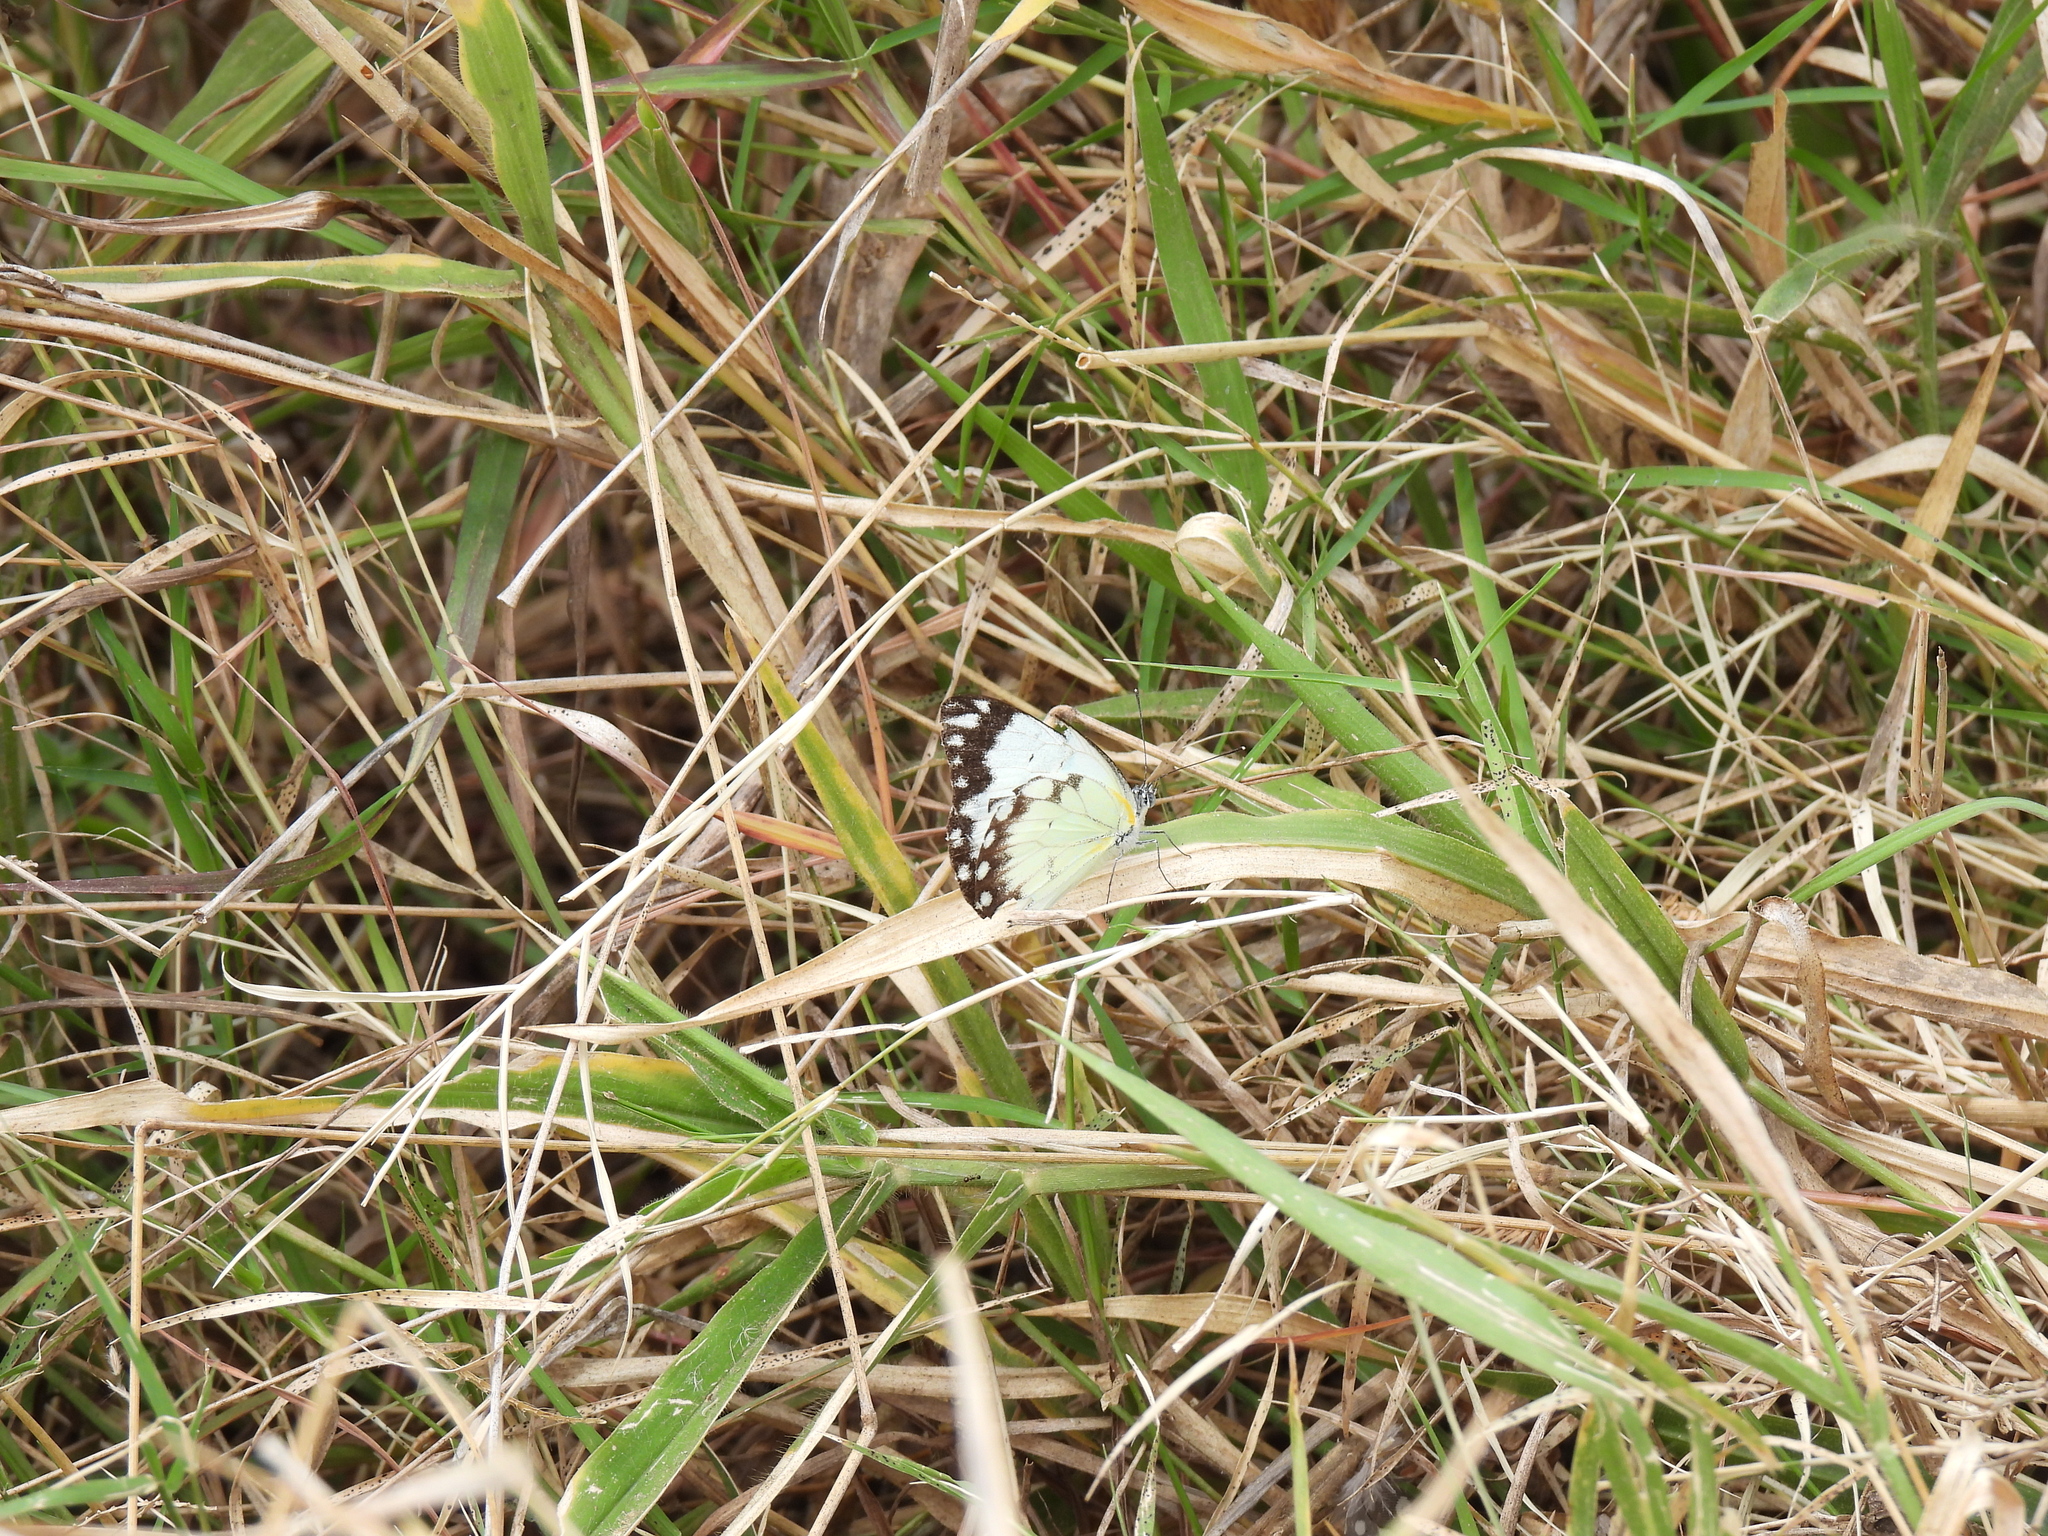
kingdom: Animalia
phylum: Arthropoda
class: Insecta
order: Lepidoptera
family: Pieridae
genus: Belenois
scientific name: Belenois creona
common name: African caper white
